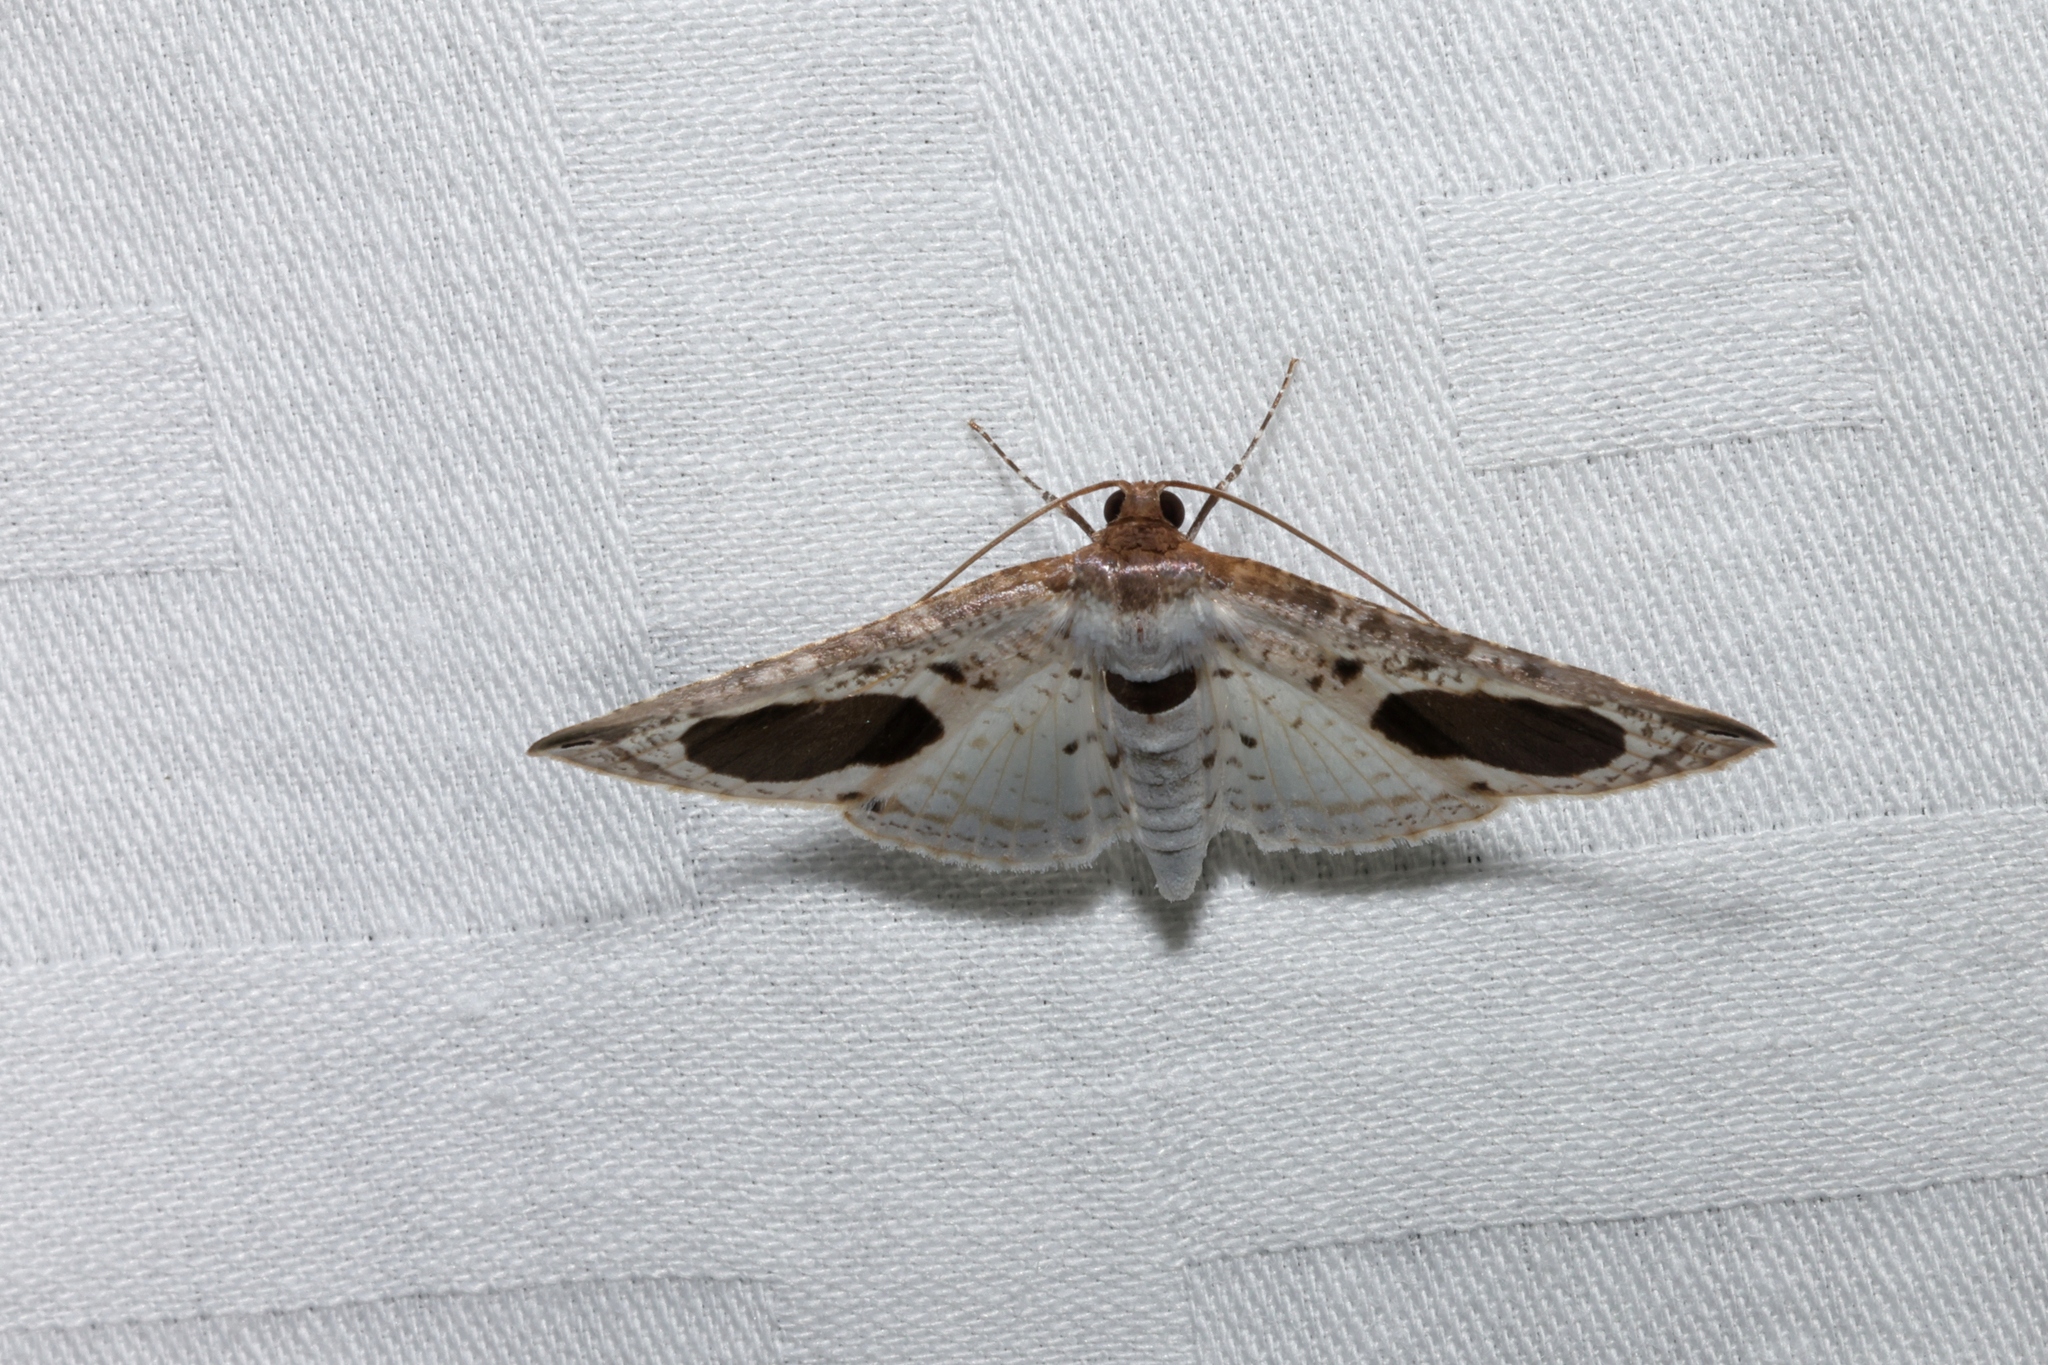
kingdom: Animalia
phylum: Arthropoda
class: Insecta
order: Lepidoptera
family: Thyrididae
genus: Calindoea
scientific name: Calindoea
